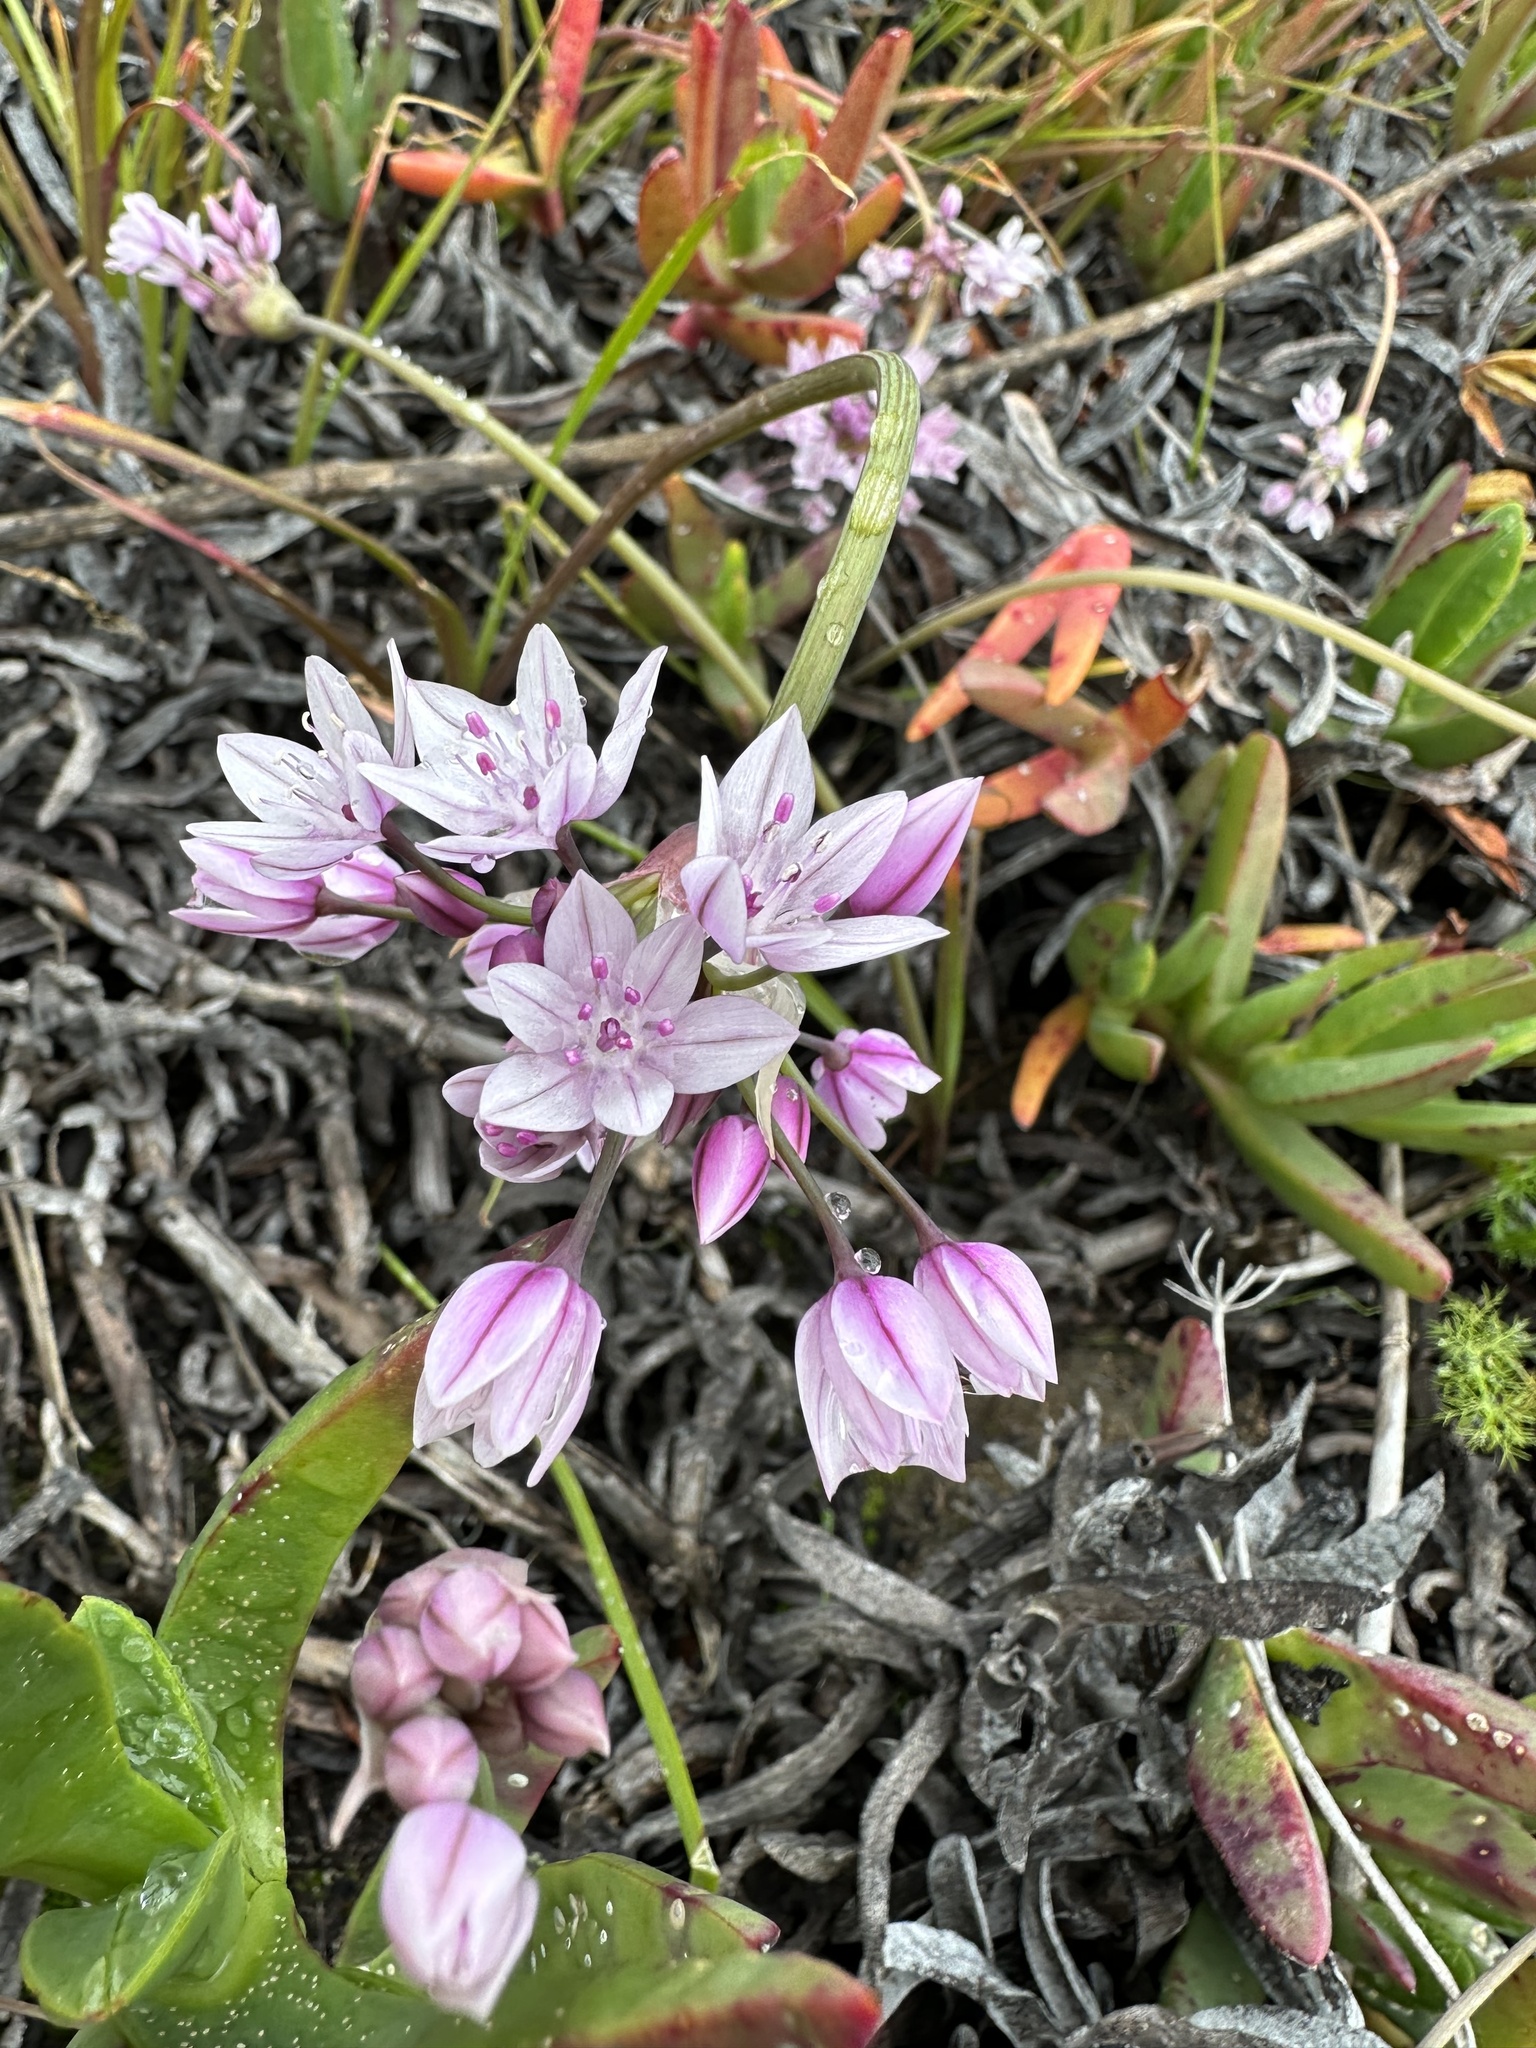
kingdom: Plantae
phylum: Tracheophyta
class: Liliopsida
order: Asparagales
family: Amaryllidaceae
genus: Allium
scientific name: Allium praecox
